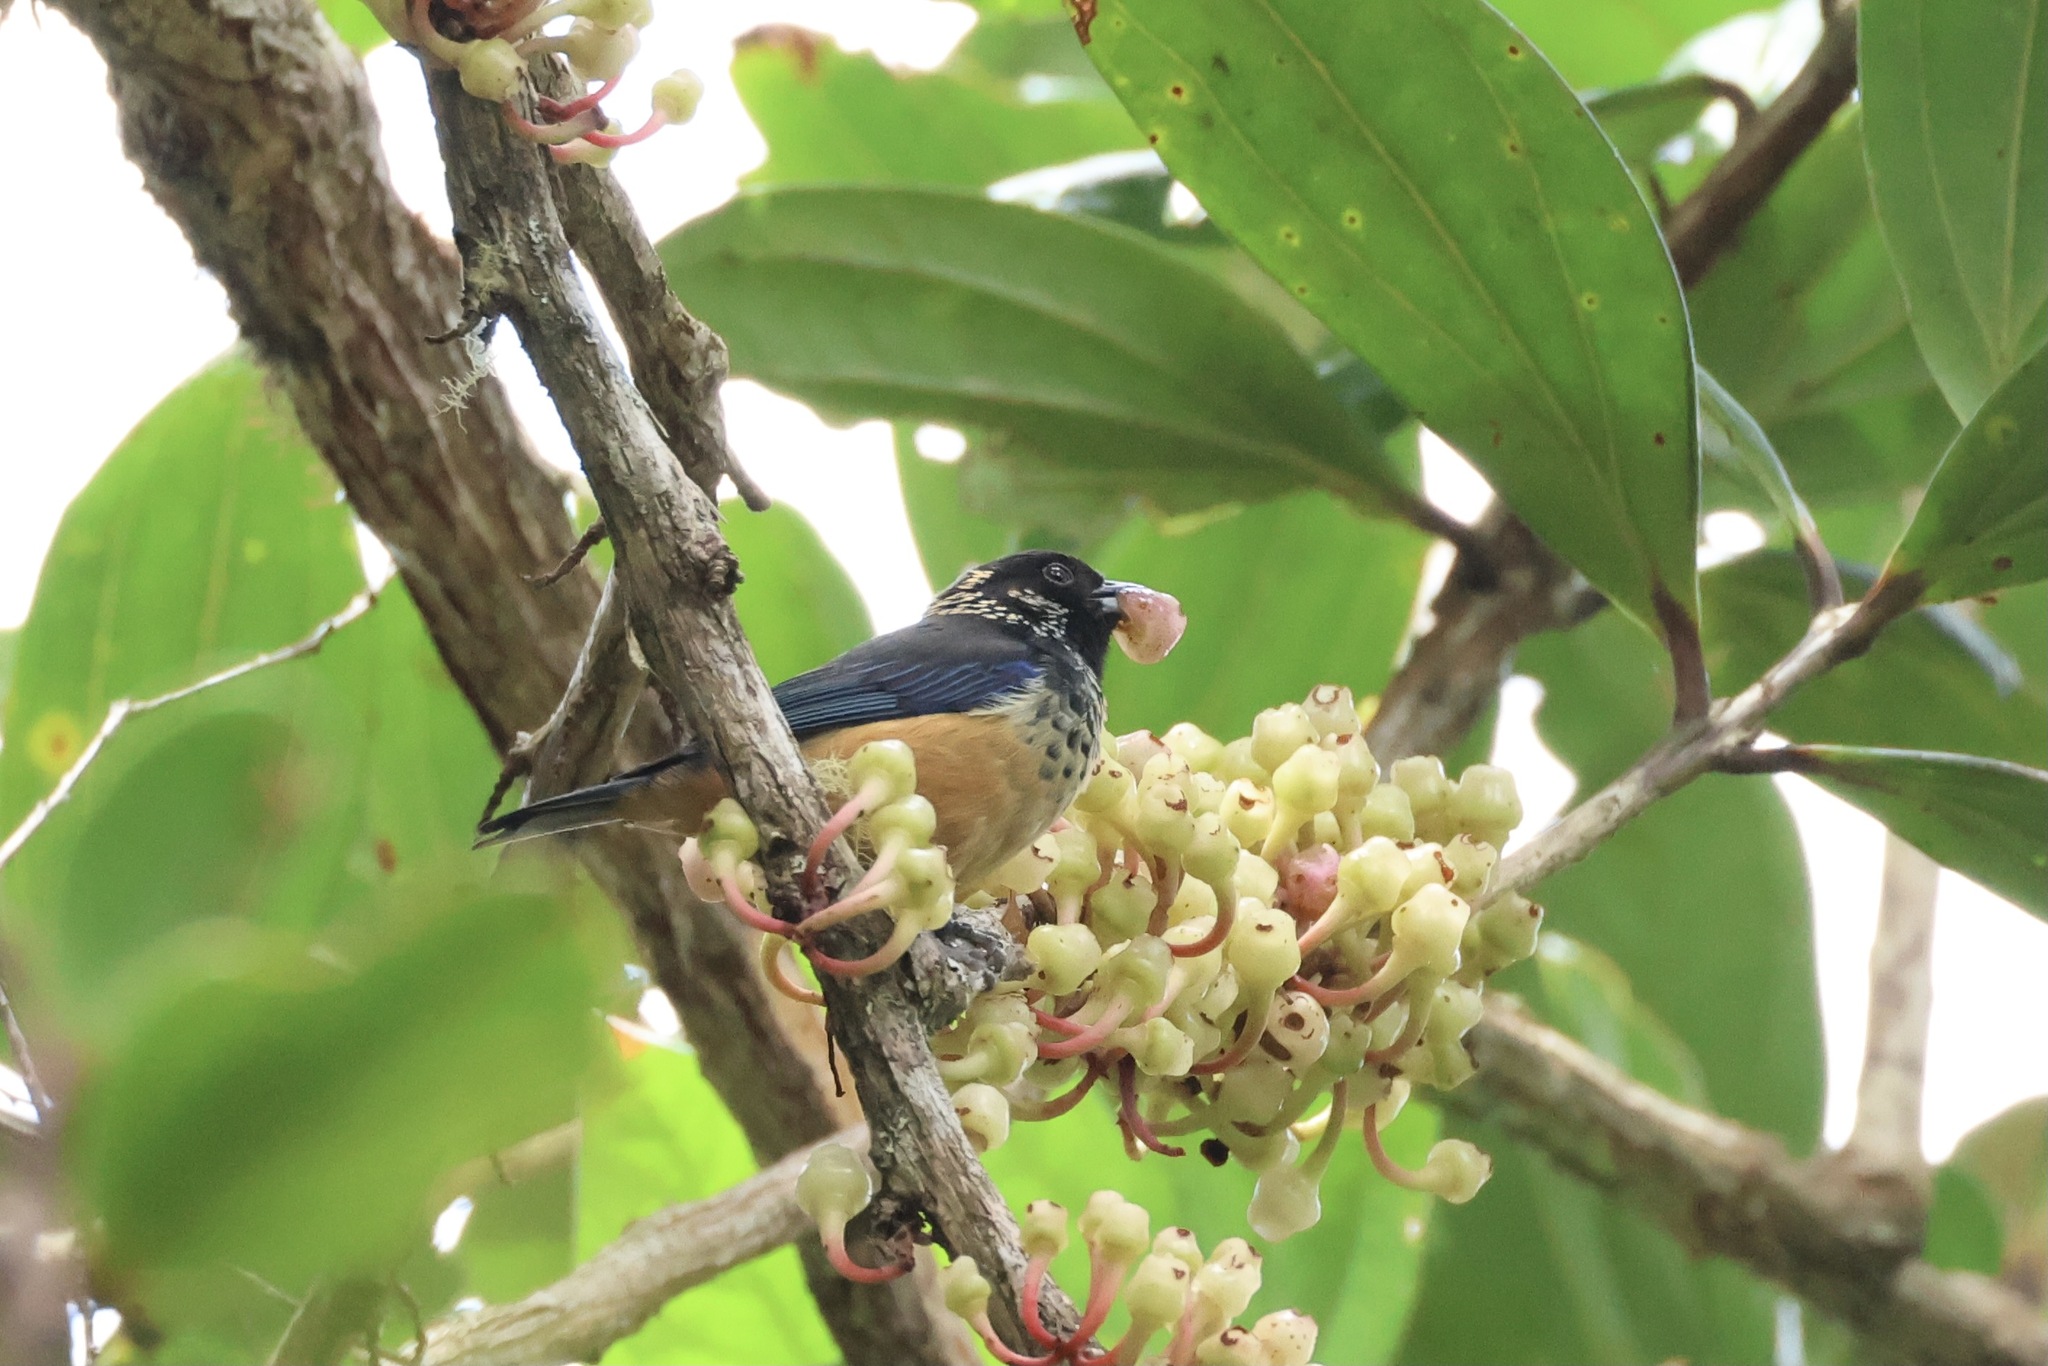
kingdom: Animalia
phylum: Chordata
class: Aves
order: Passeriformes
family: Thraupidae
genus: Tangara
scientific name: Tangara dowii
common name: Spangle-cheeked tanager
